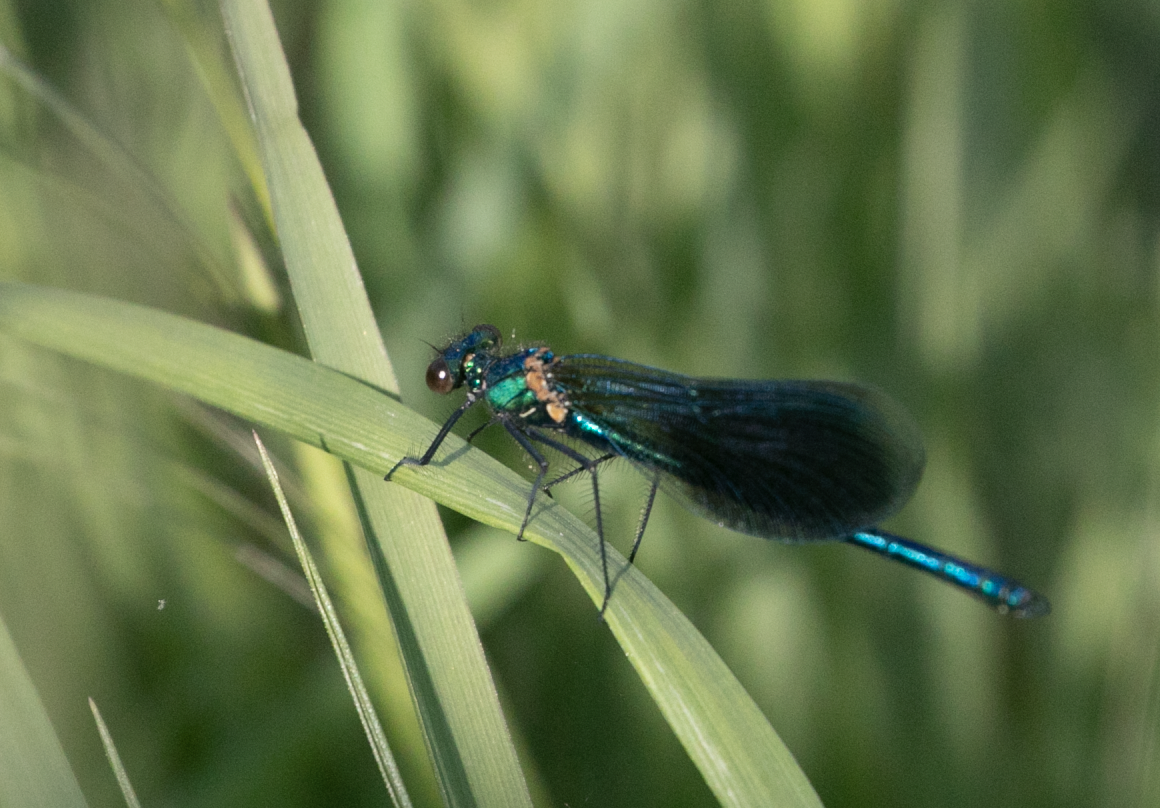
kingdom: Animalia
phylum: Arthropoda
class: Insecta
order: Odonata
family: Calopterygidae
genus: Calopteryx
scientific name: Calopteryx splendens
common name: Banded demoiselle
